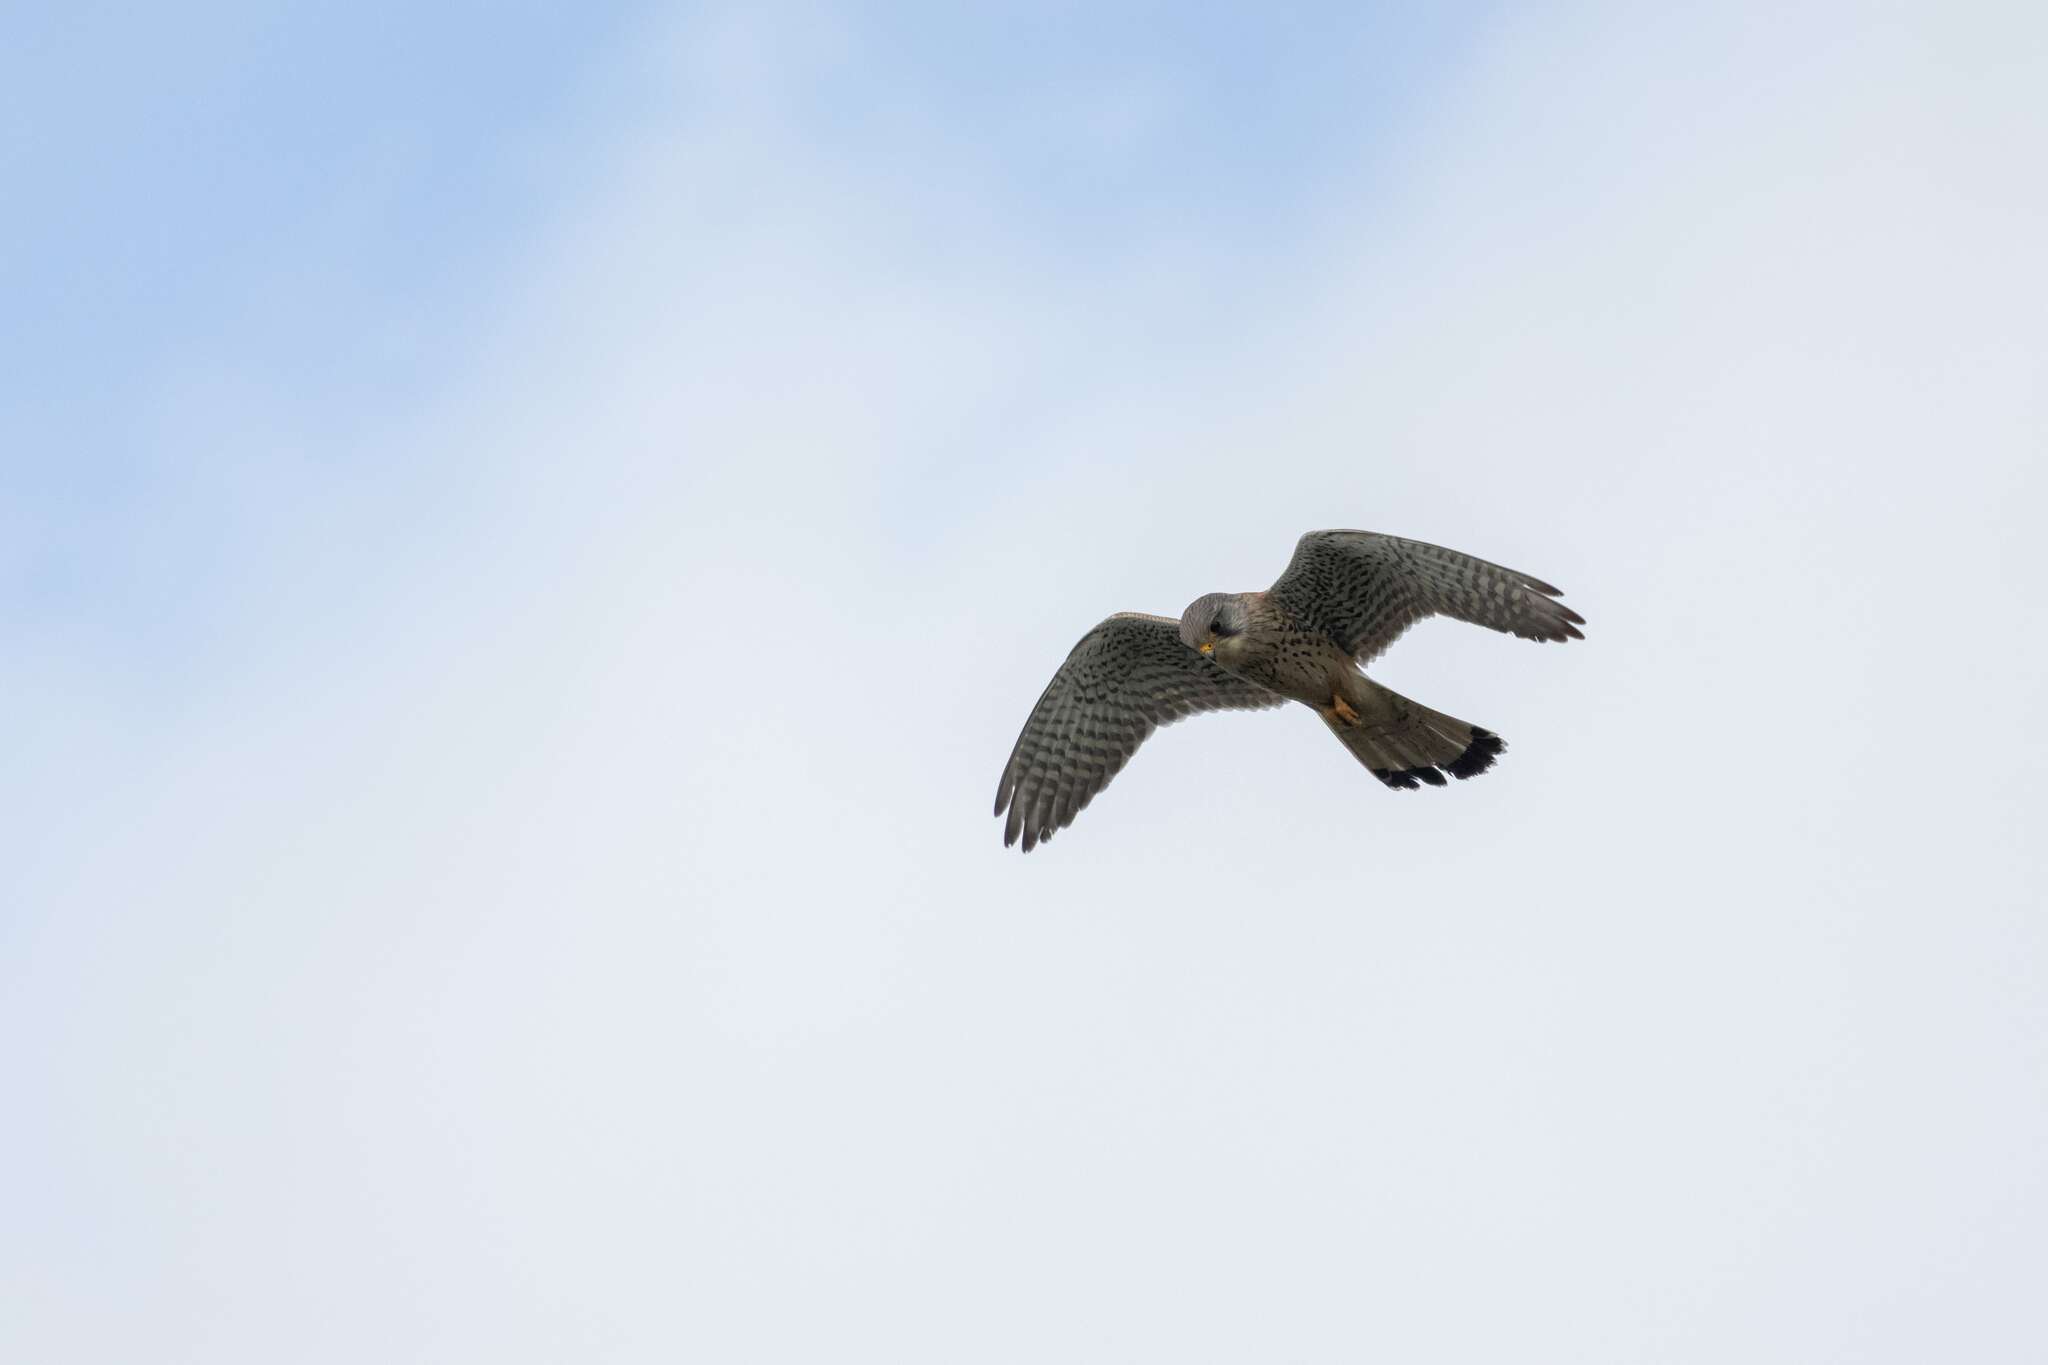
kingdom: Animalia
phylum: Chordata
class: Aves
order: Falconiformes
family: Falconidae
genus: Falco
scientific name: Falco tinnunculus
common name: Common kestrel
